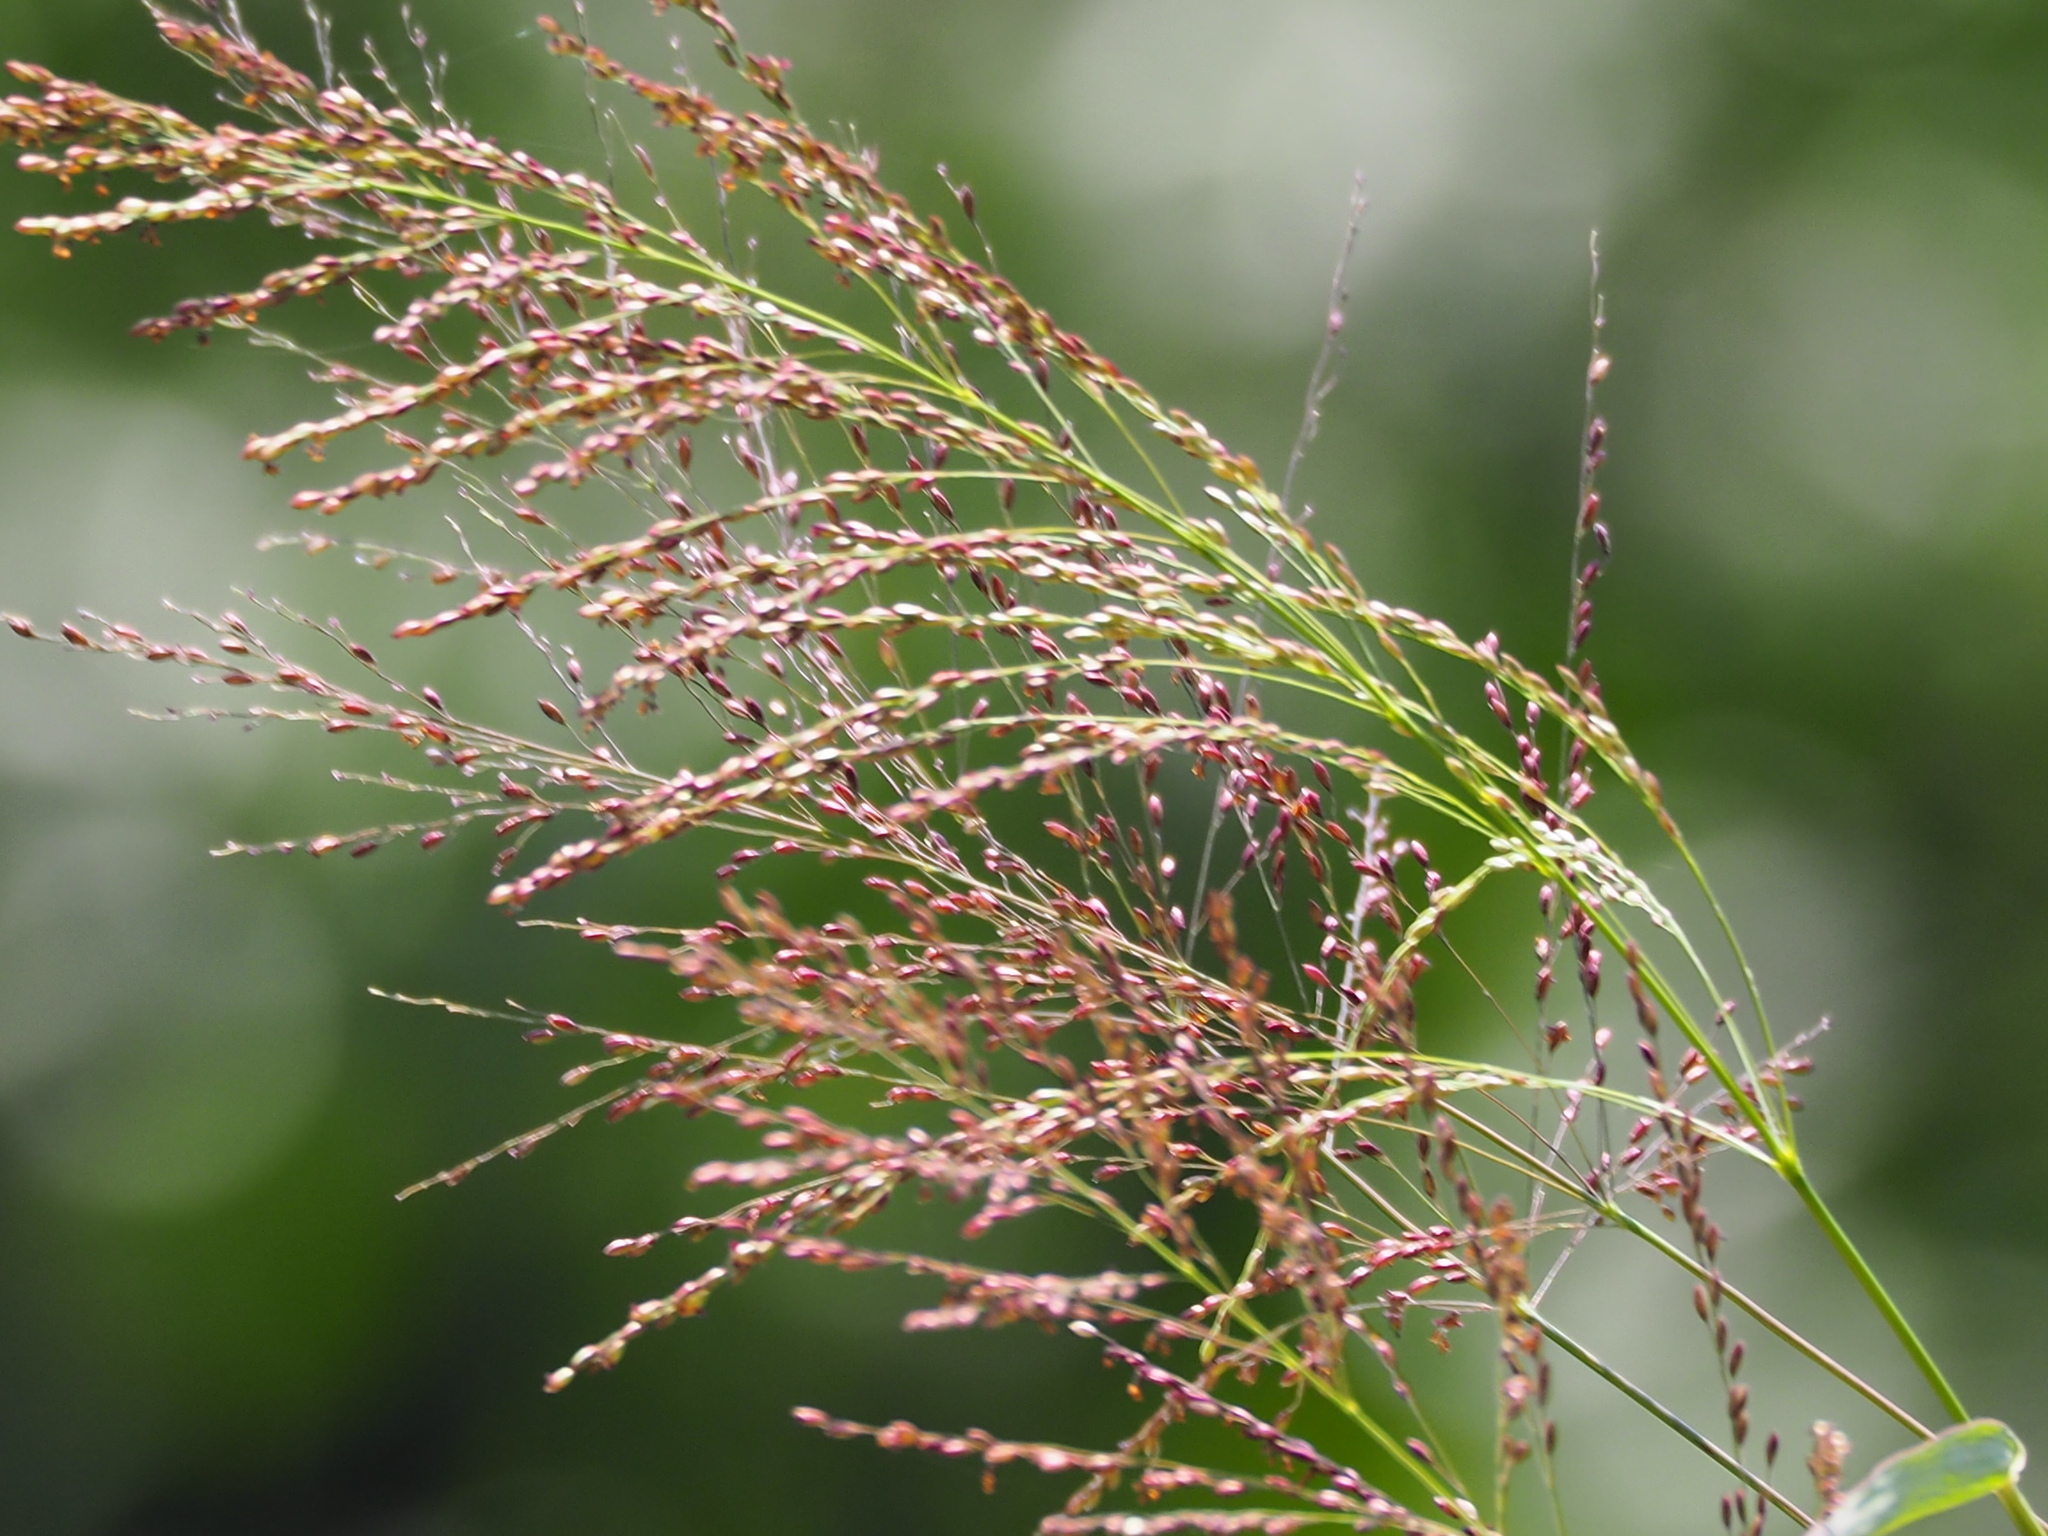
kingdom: Plantae
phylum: Tracheophyta
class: Liliopsida
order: Poales
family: Poaceae
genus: Megathyrsus
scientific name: Megathyrsus maximus
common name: Guineagrass
